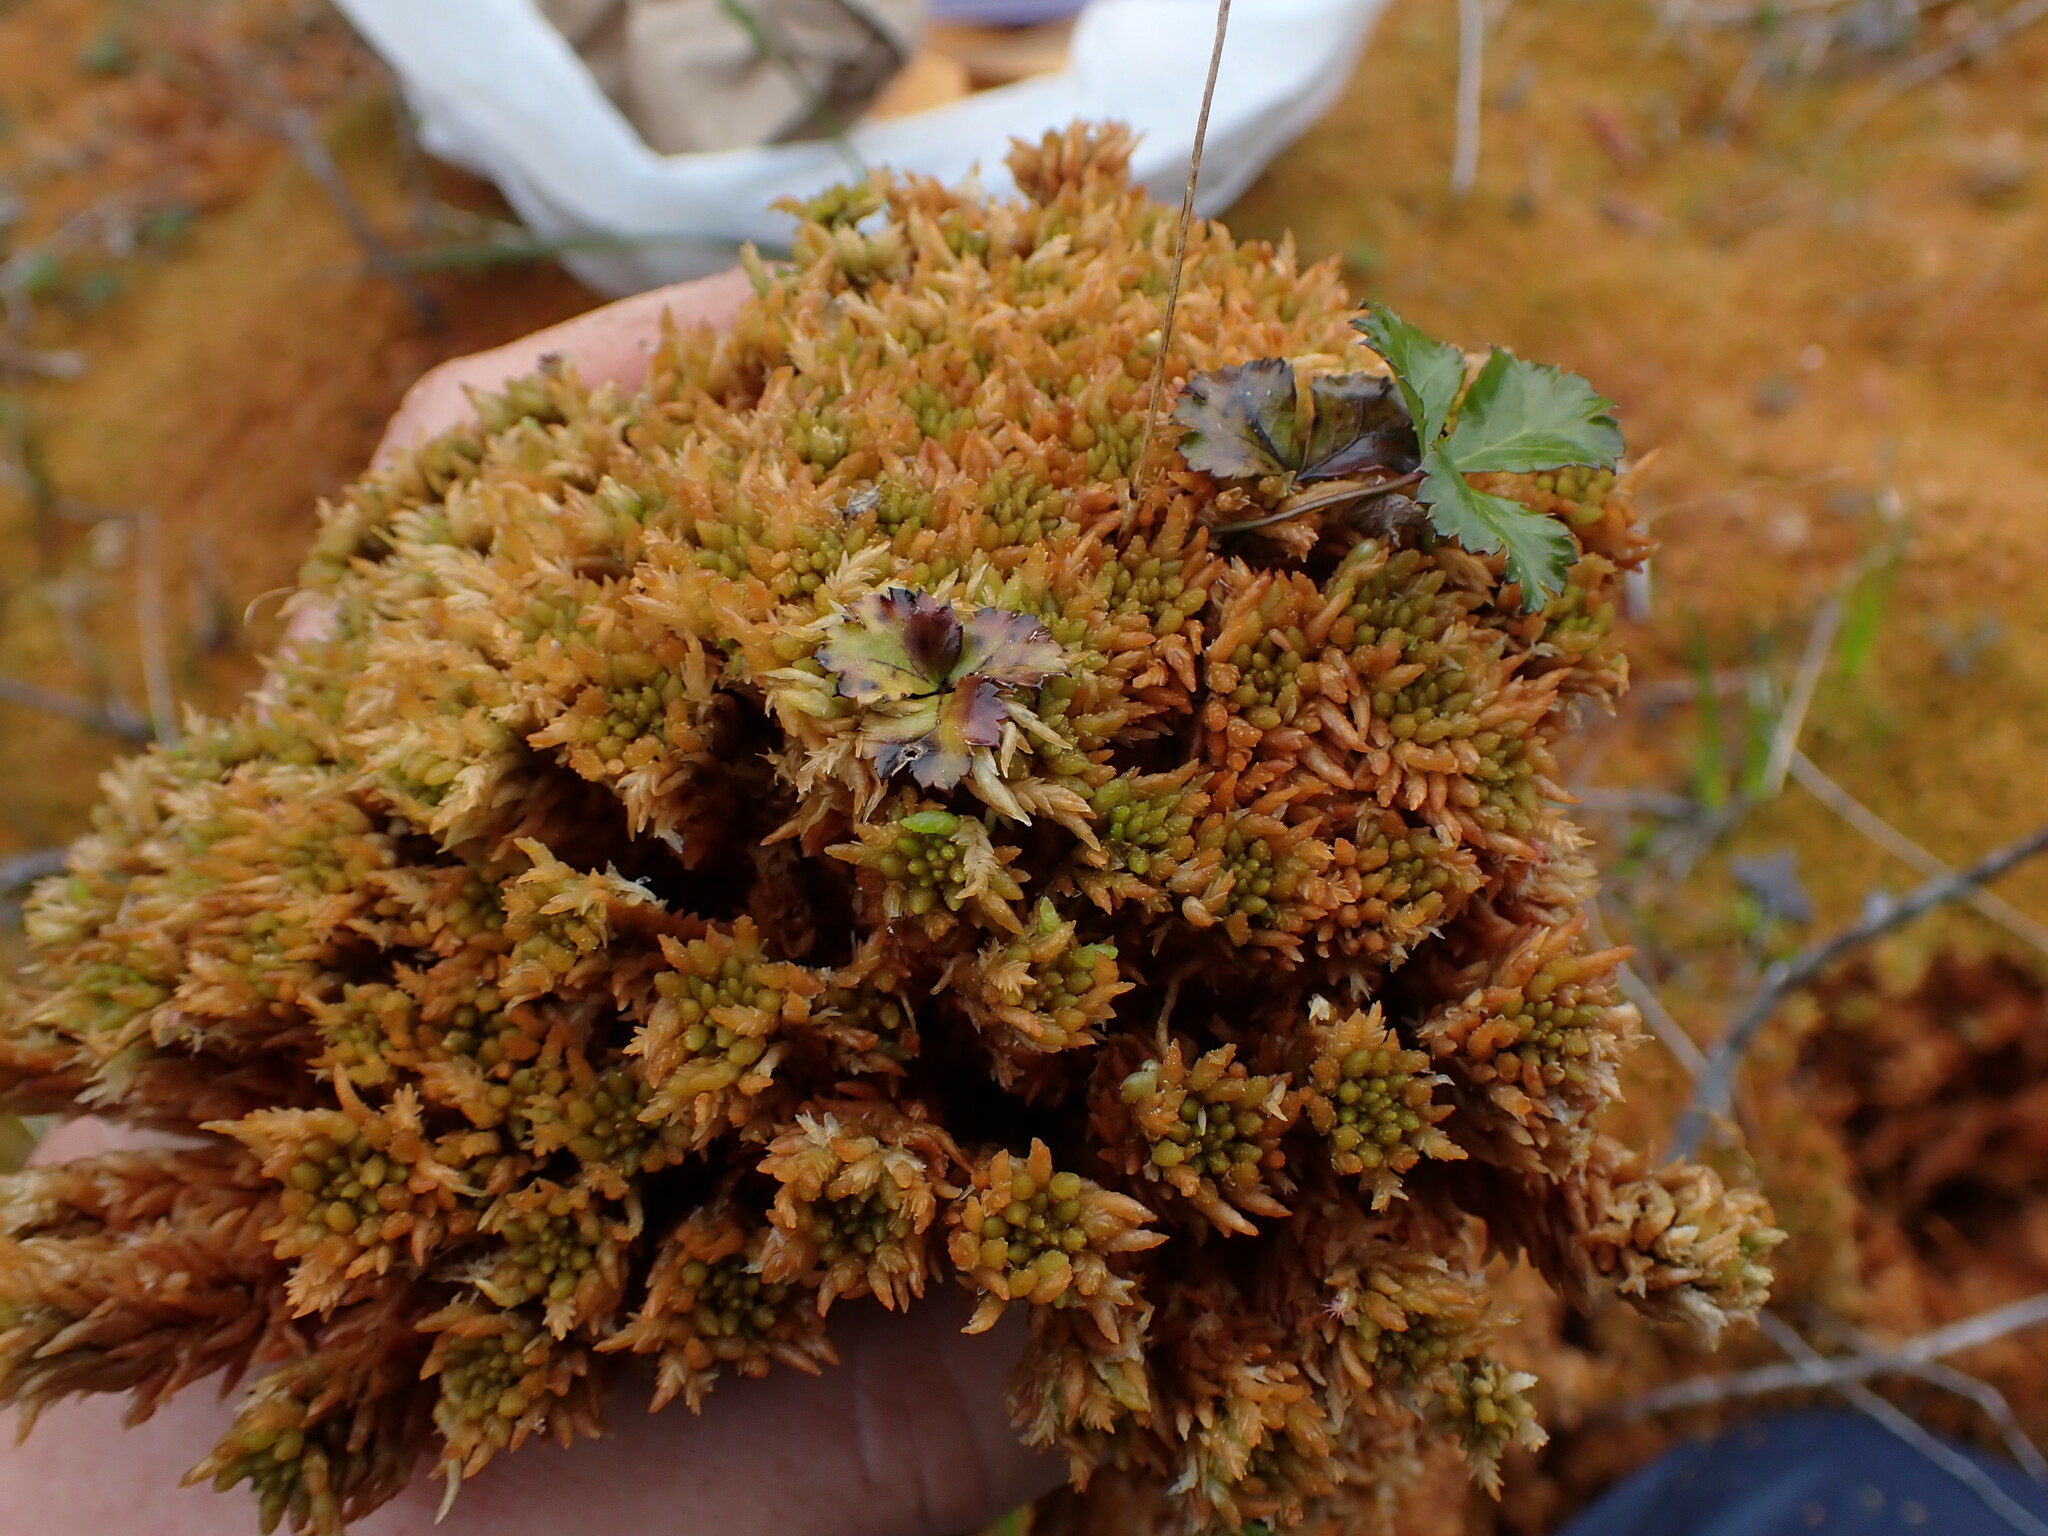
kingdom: Plantae
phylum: Bryophyta
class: Sphagnopsida
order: Sphagnales
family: Sphagnaceae
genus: Sphagnum
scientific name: Sphagnum austinii
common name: Austin's peat moss
